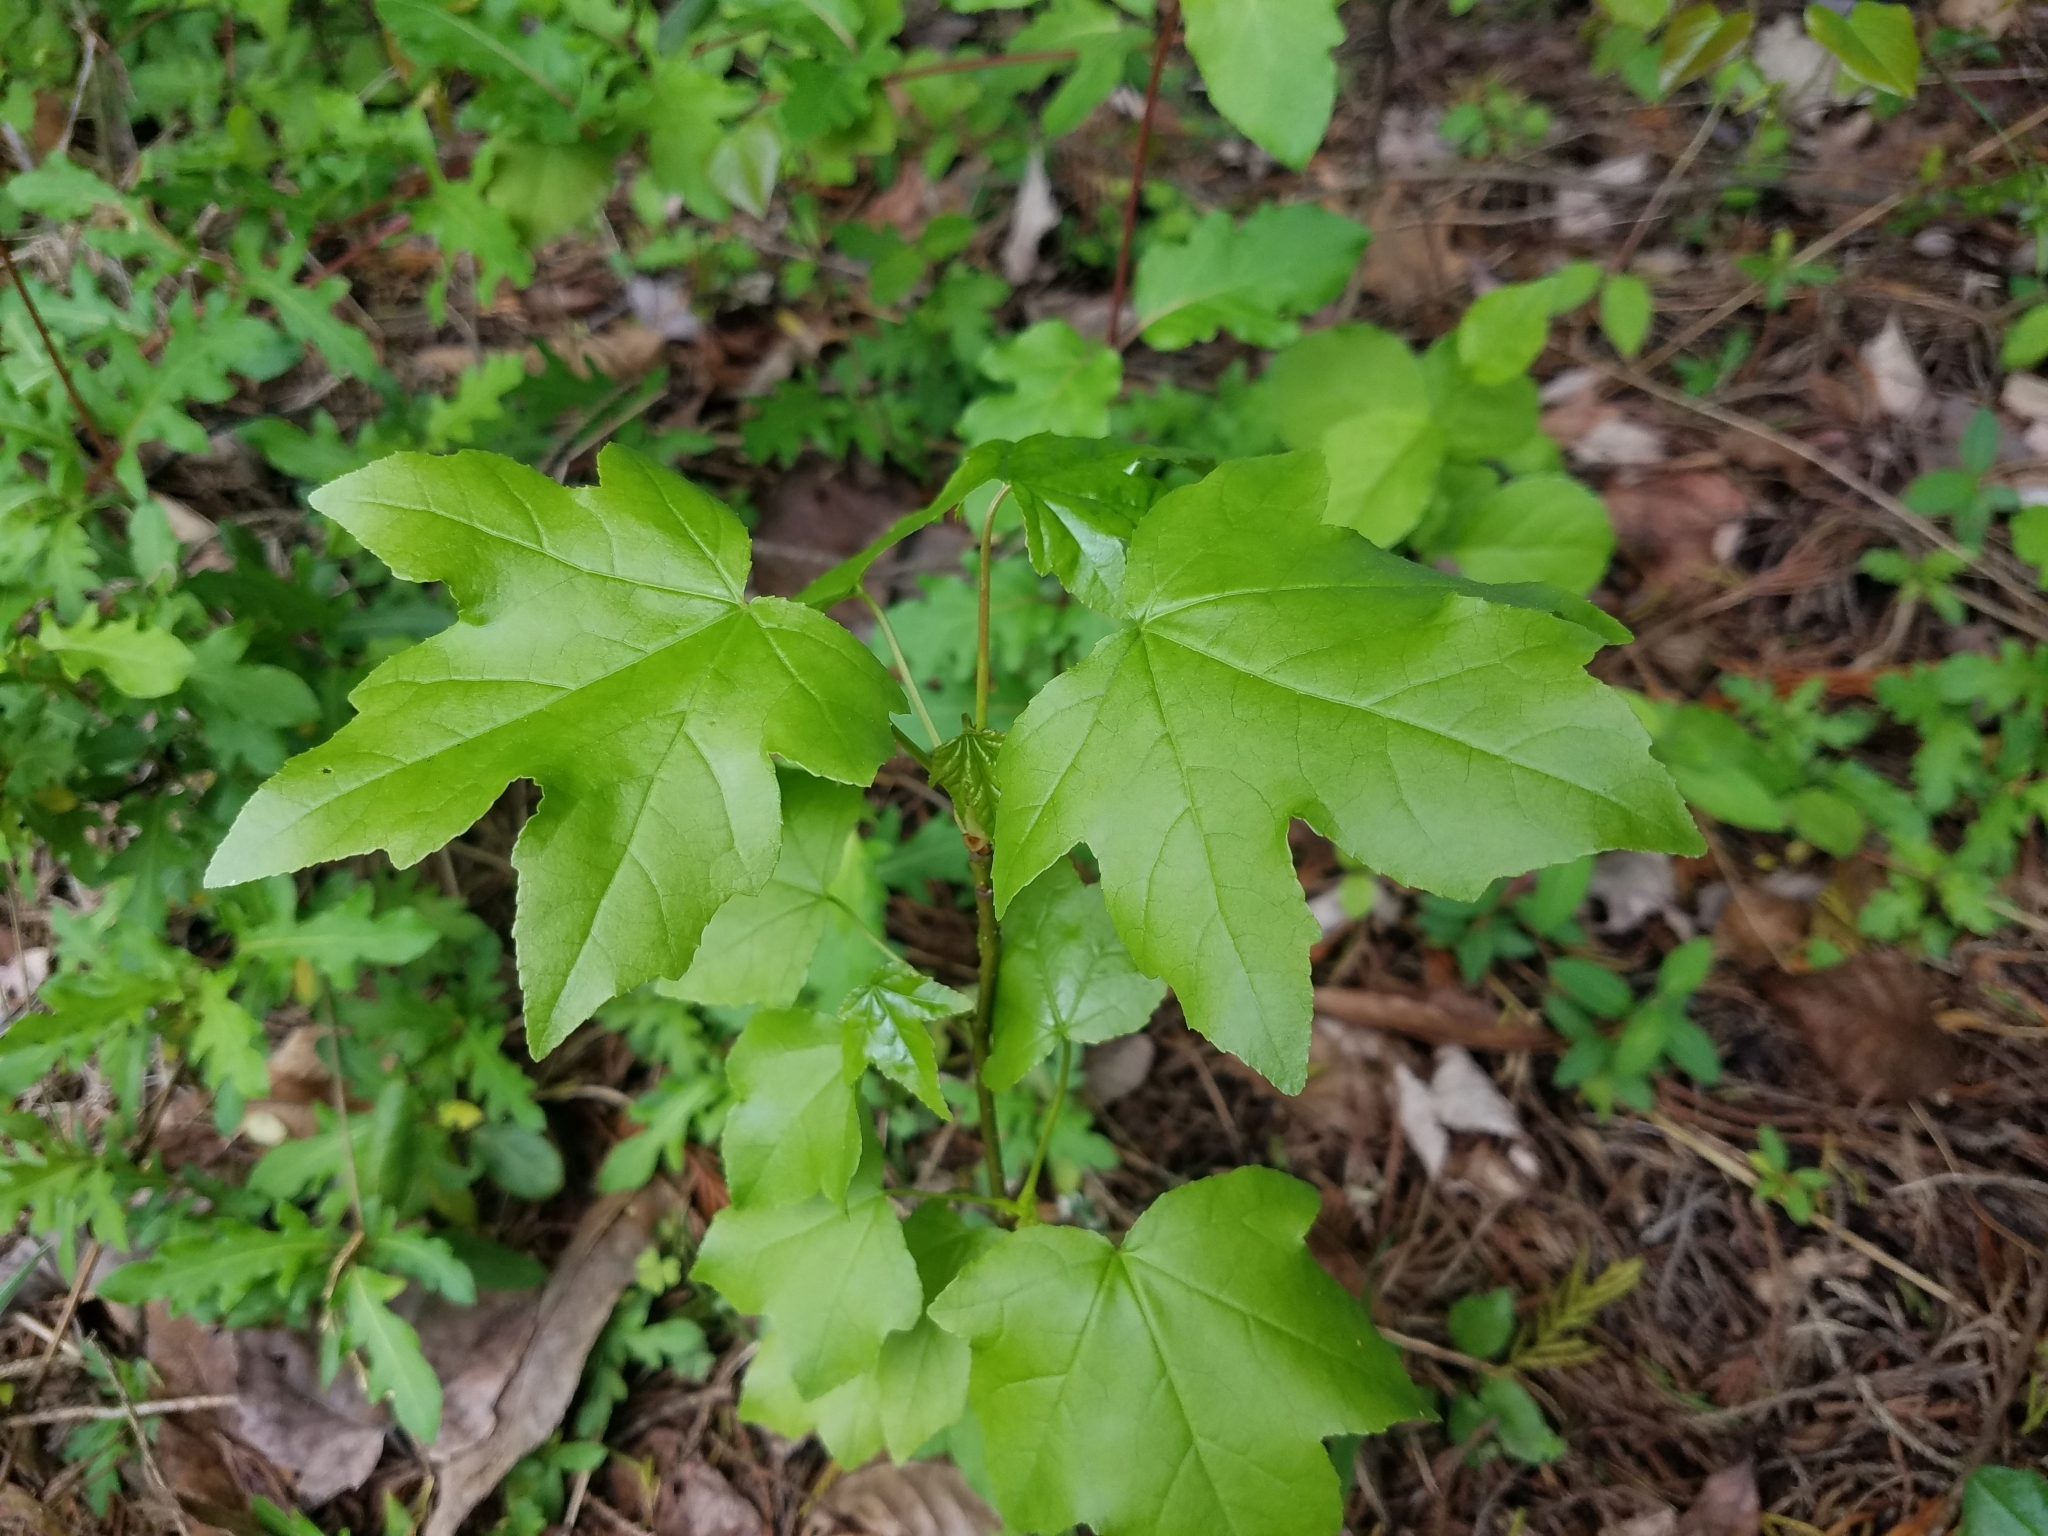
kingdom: Plantae
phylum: Tracheophyta
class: Magnoliopsida
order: Saxifragales
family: Altingiaceae
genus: Liquidambar
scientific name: Liquidambar styraciflua
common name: Sweet gum
